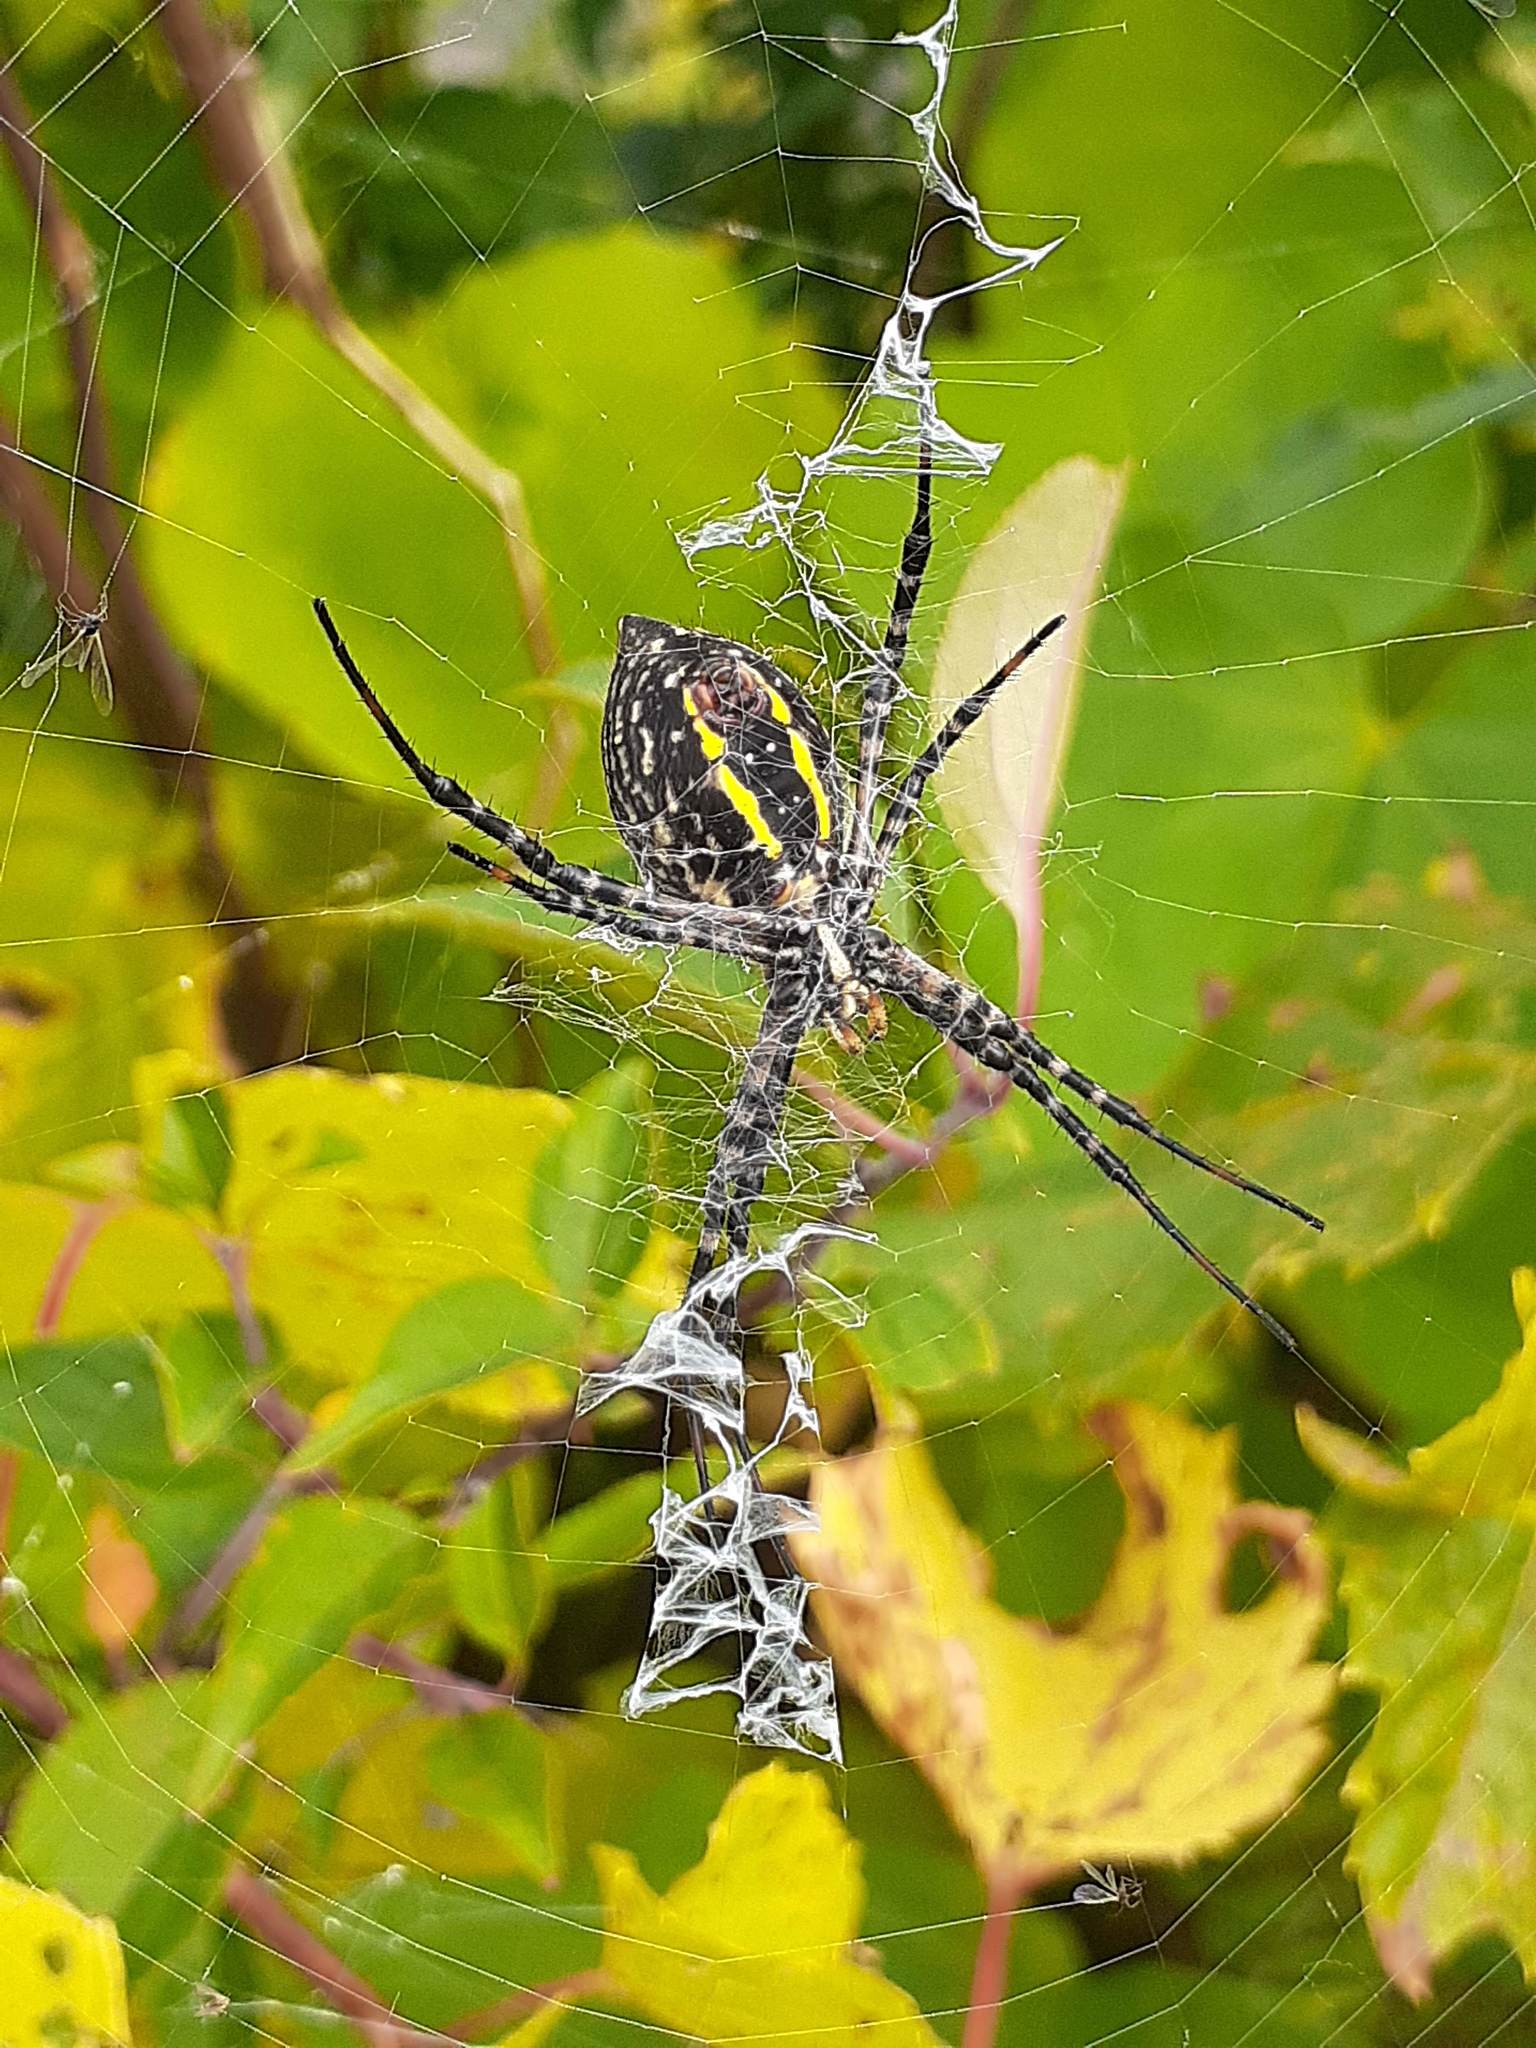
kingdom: Animalia
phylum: Arthropoda
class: Arachnida
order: Araneae
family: Araneidae
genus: Argiope
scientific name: Argiope trifasciata
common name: Banded garden spider
